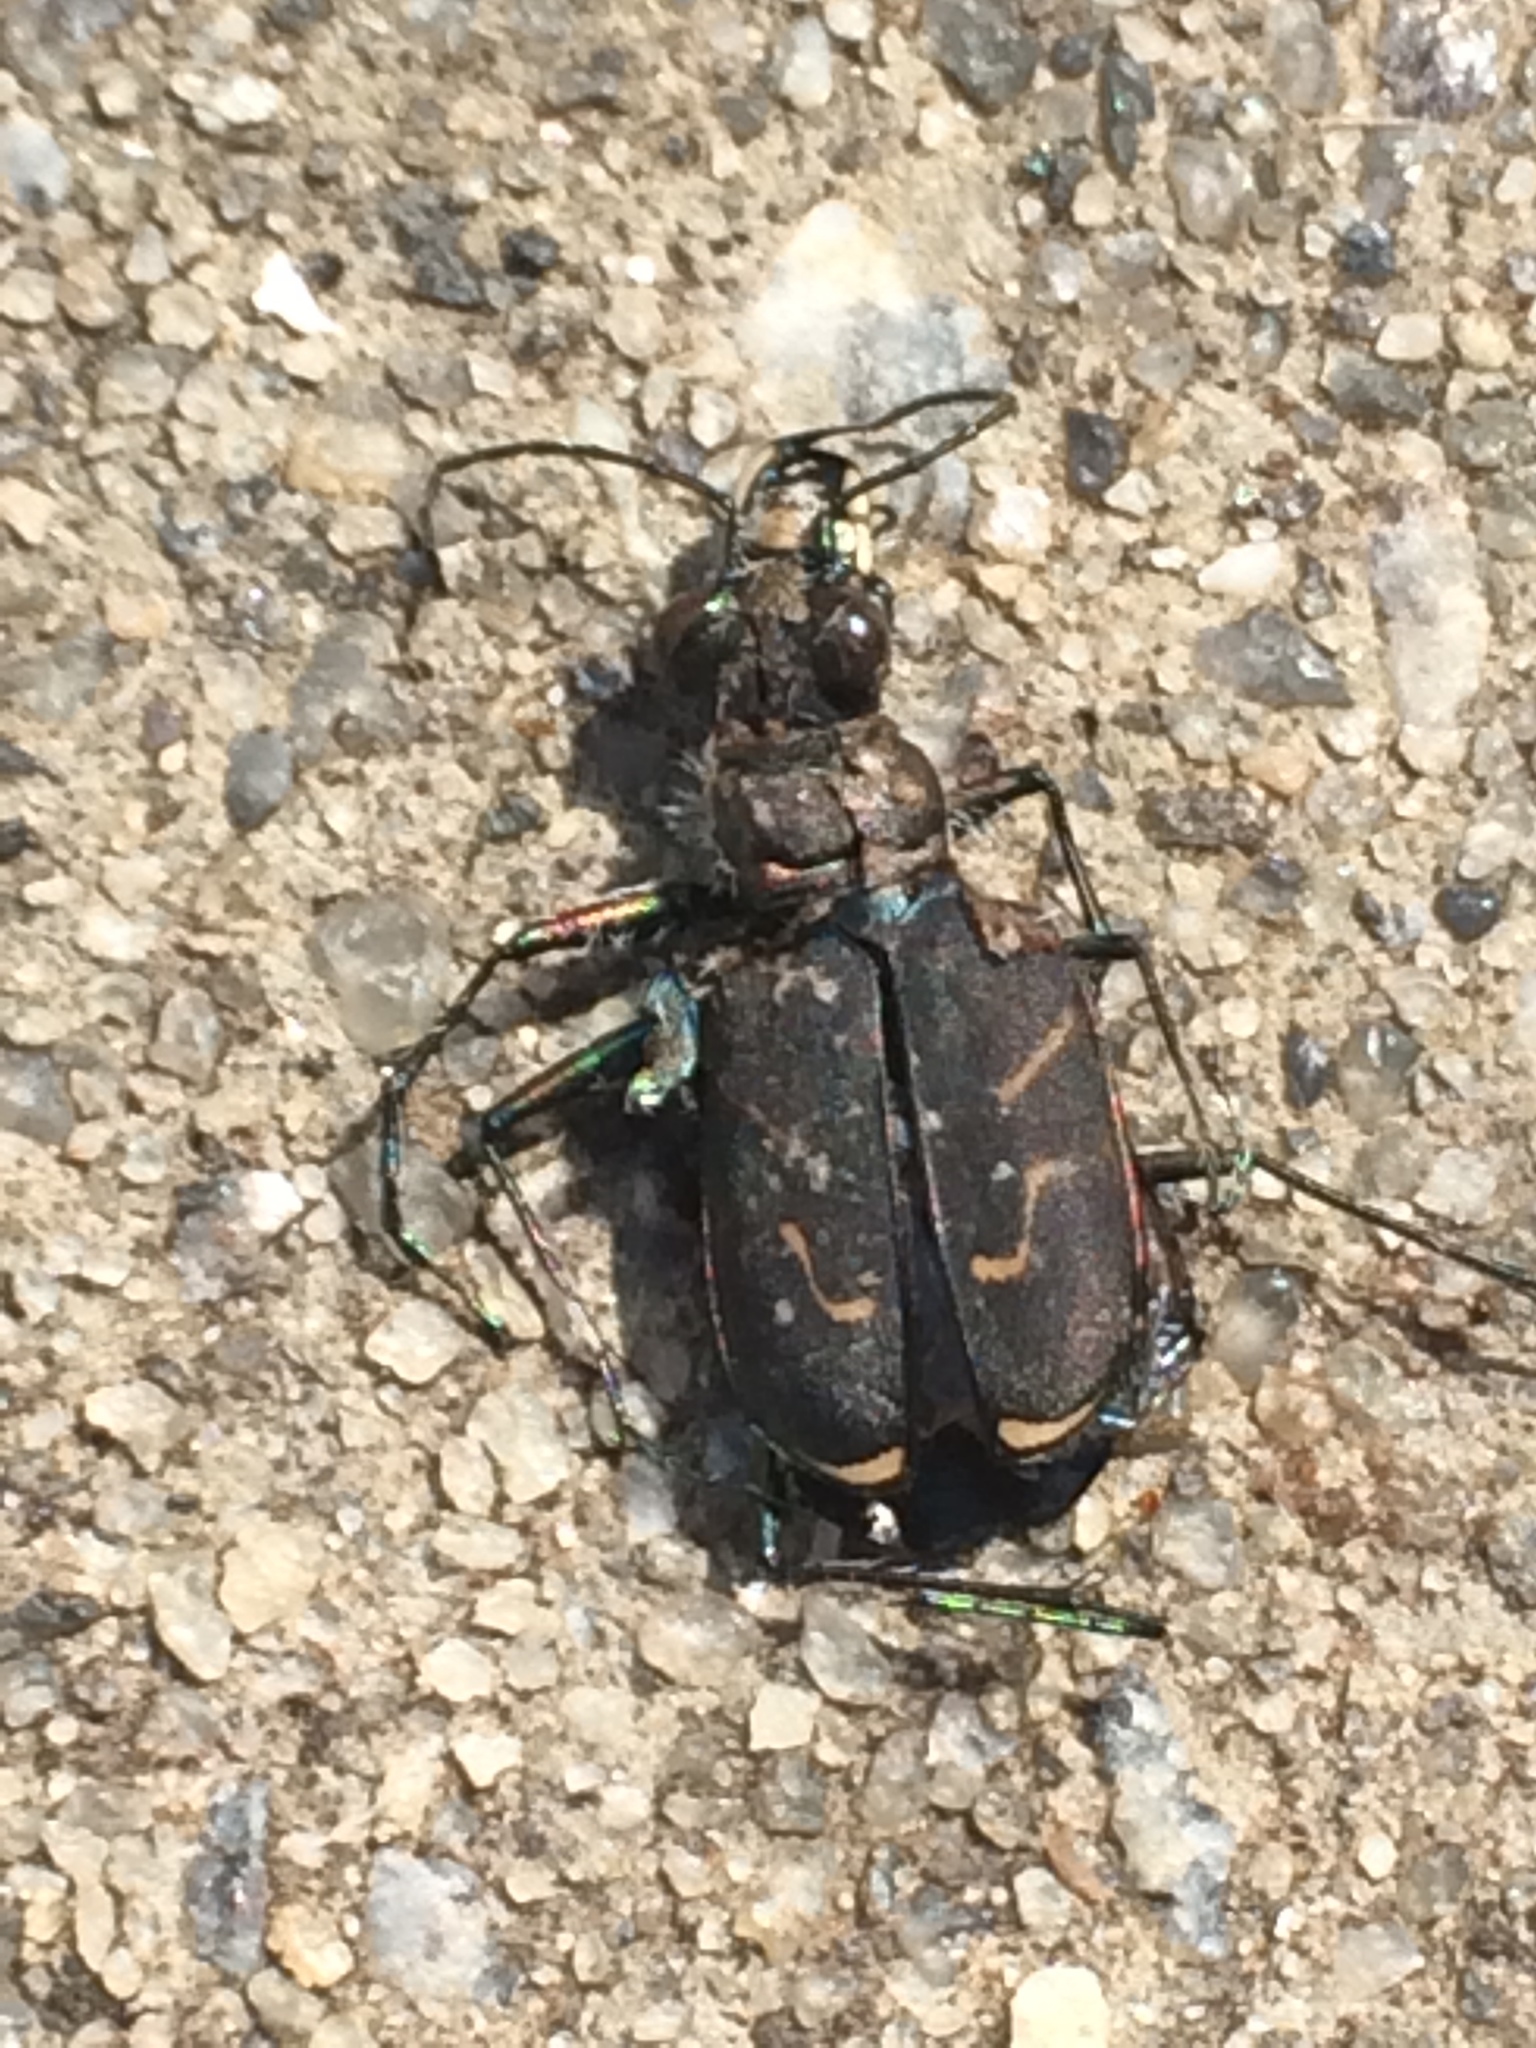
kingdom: Animalia
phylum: Arthropoda
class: Insecta
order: Coleoptera
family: Carabidae
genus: Cicindela
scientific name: Cicindela tranquebarica
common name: Oblique-lined tiger beetle
